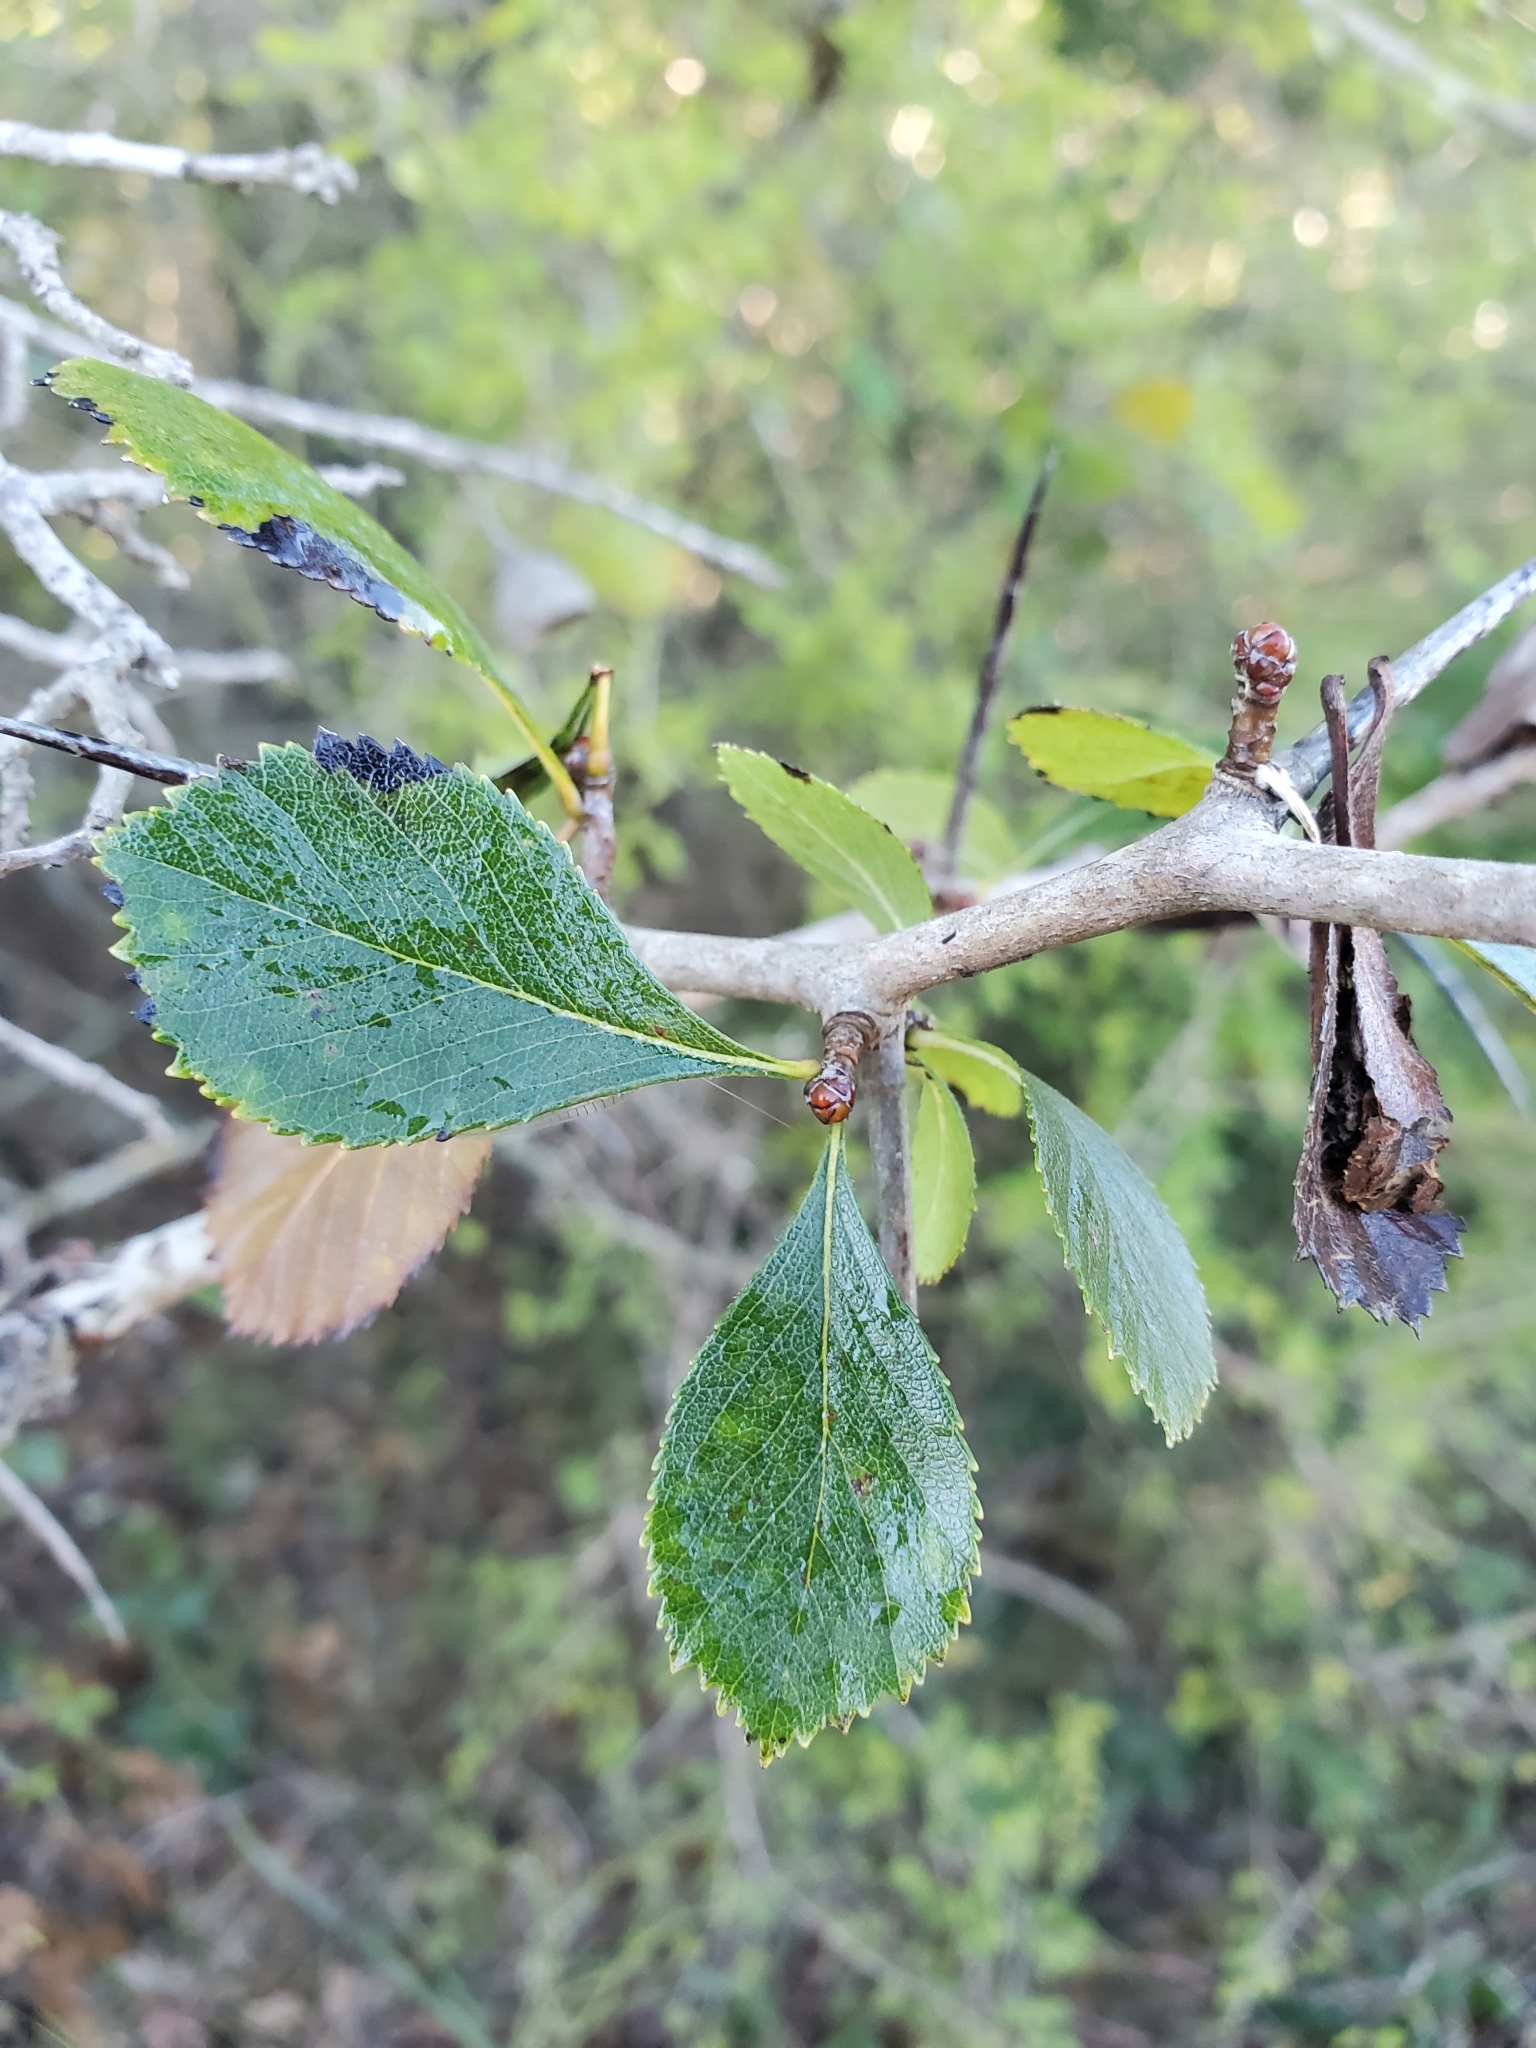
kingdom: Plantae
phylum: Tracheophyta
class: Magnoliopsida
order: Rosales
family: Rosaceae
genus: Crataegus
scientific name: Crataegus tracyi
